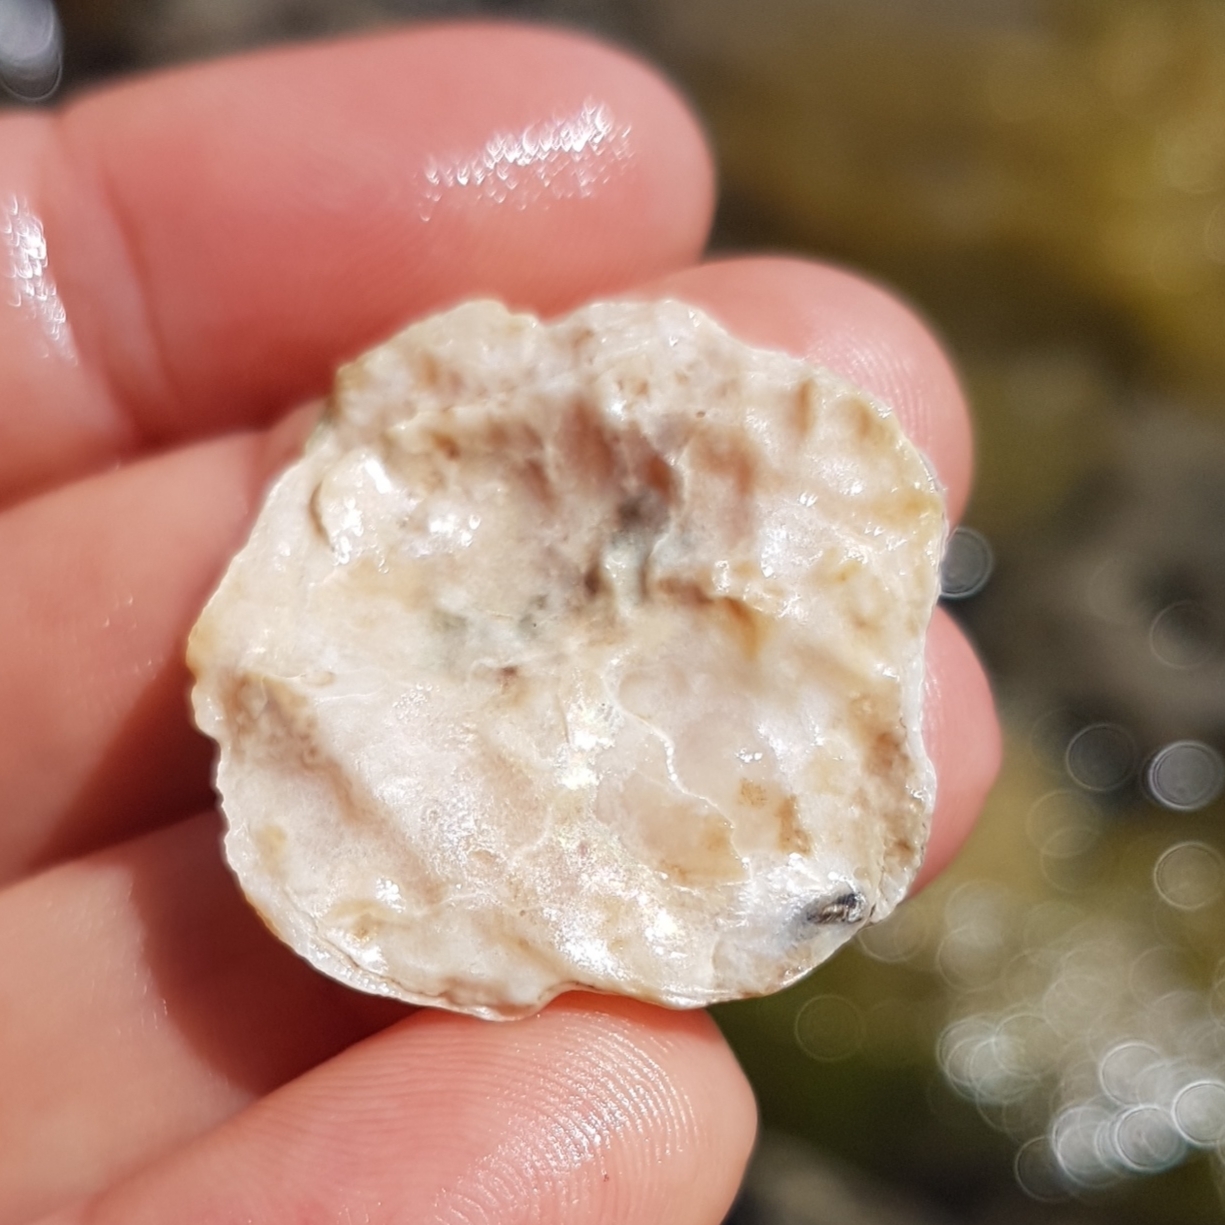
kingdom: Animalia
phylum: Mollusca
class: Bivalvia
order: Pectinida
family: Anomiidae
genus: Anomia
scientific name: Anomia ephippium
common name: Saddle oyster
